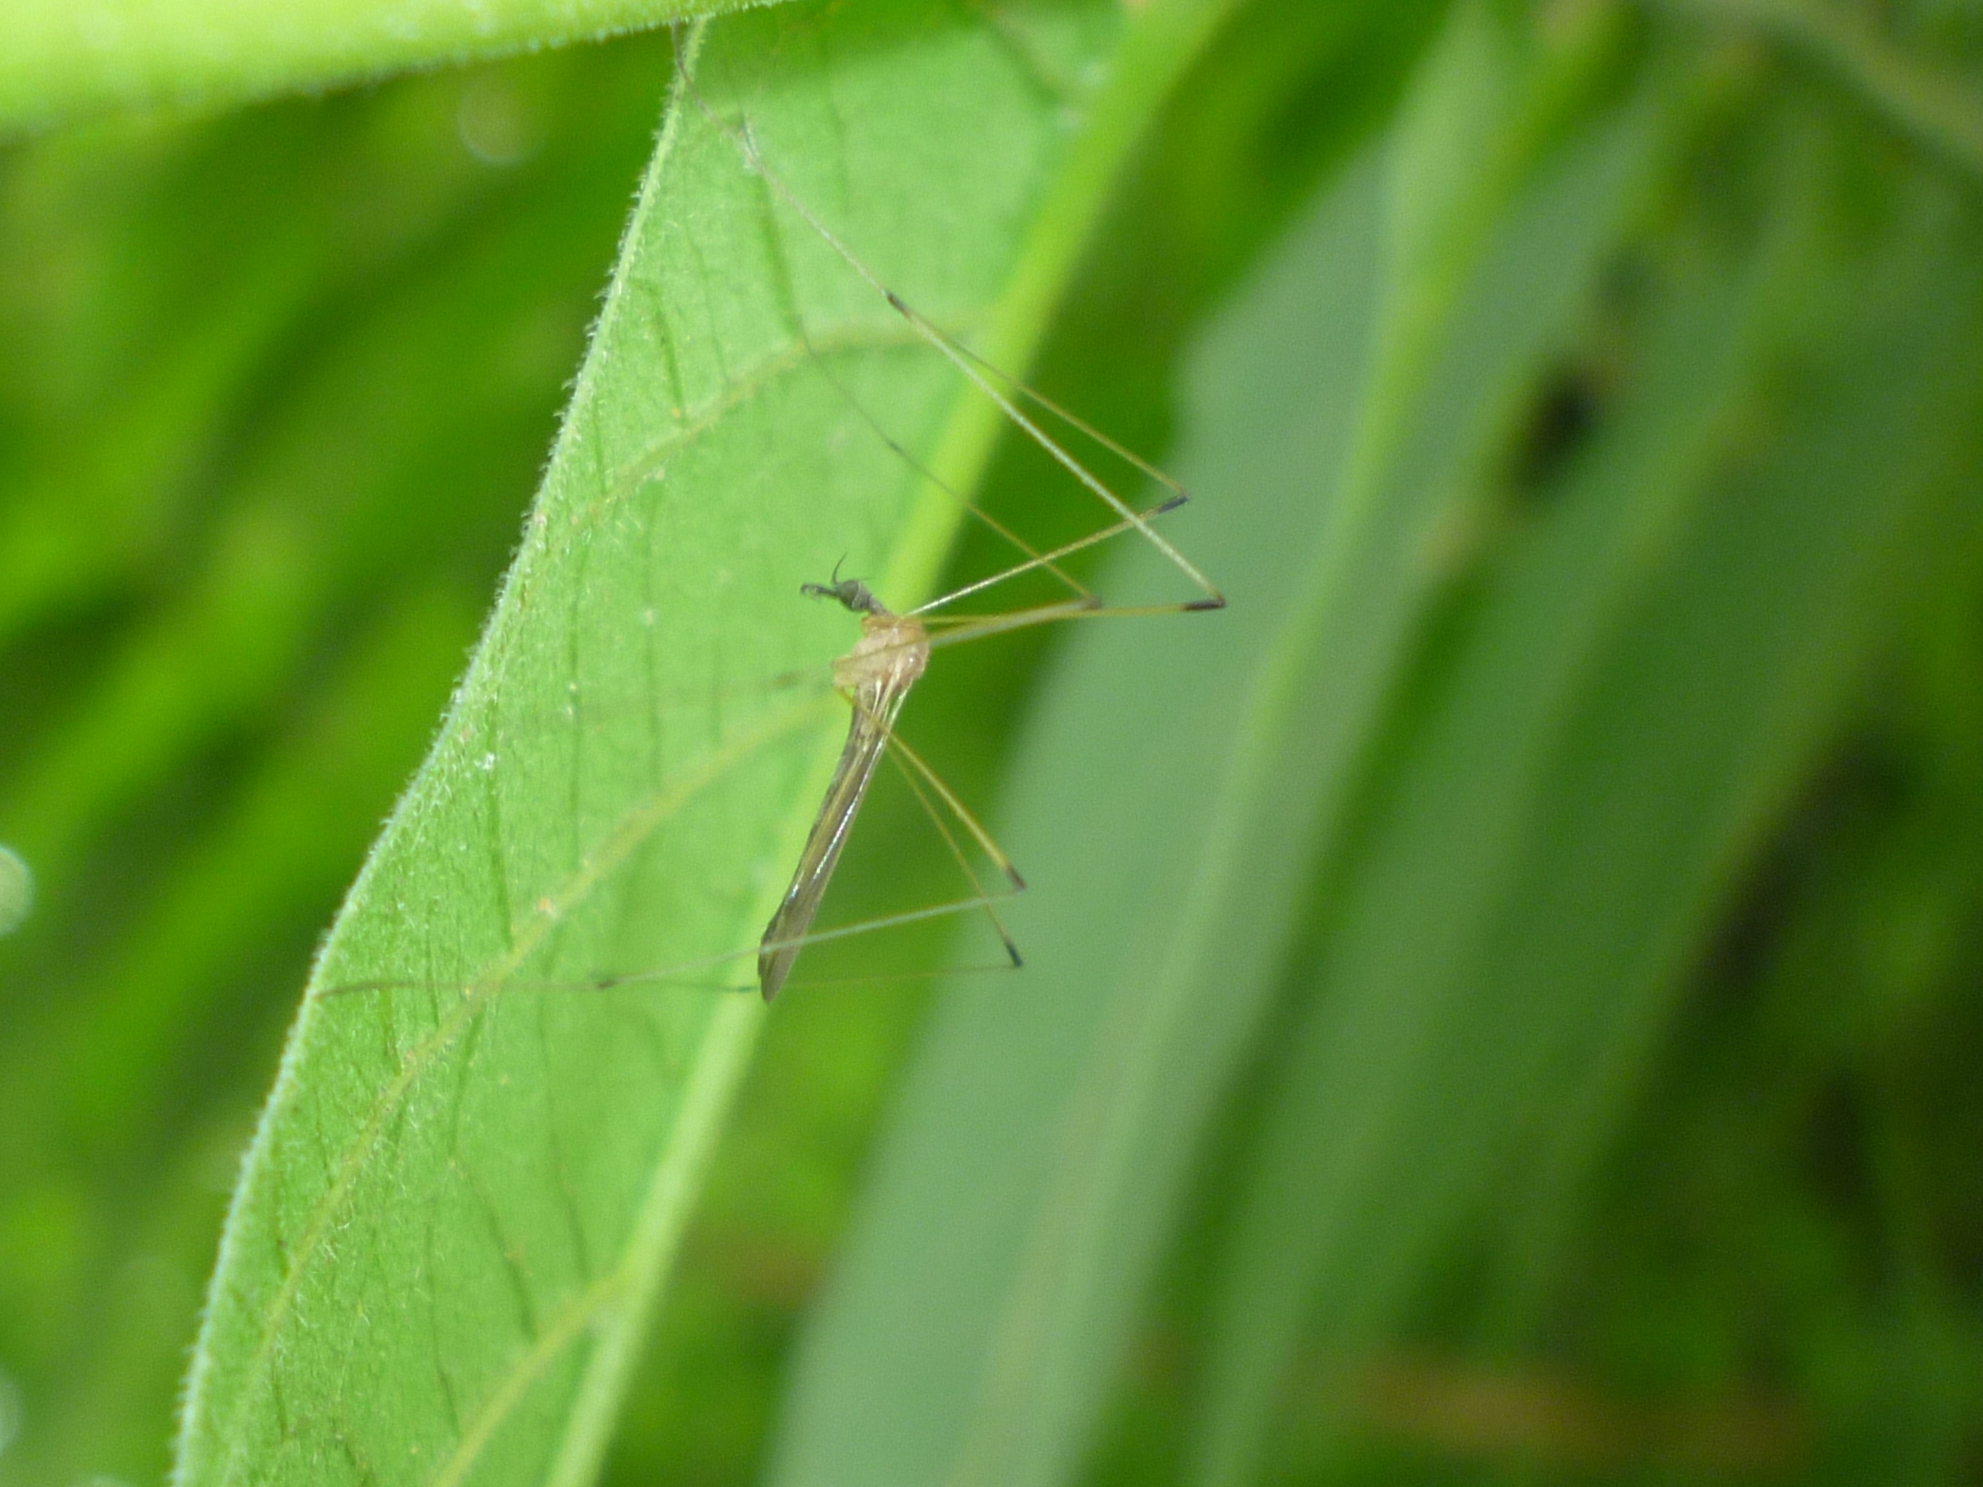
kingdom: Animalia
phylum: Arthropoda
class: Insecta
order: Diptera
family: Limoniidae
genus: Helius
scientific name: Helius flavipes
